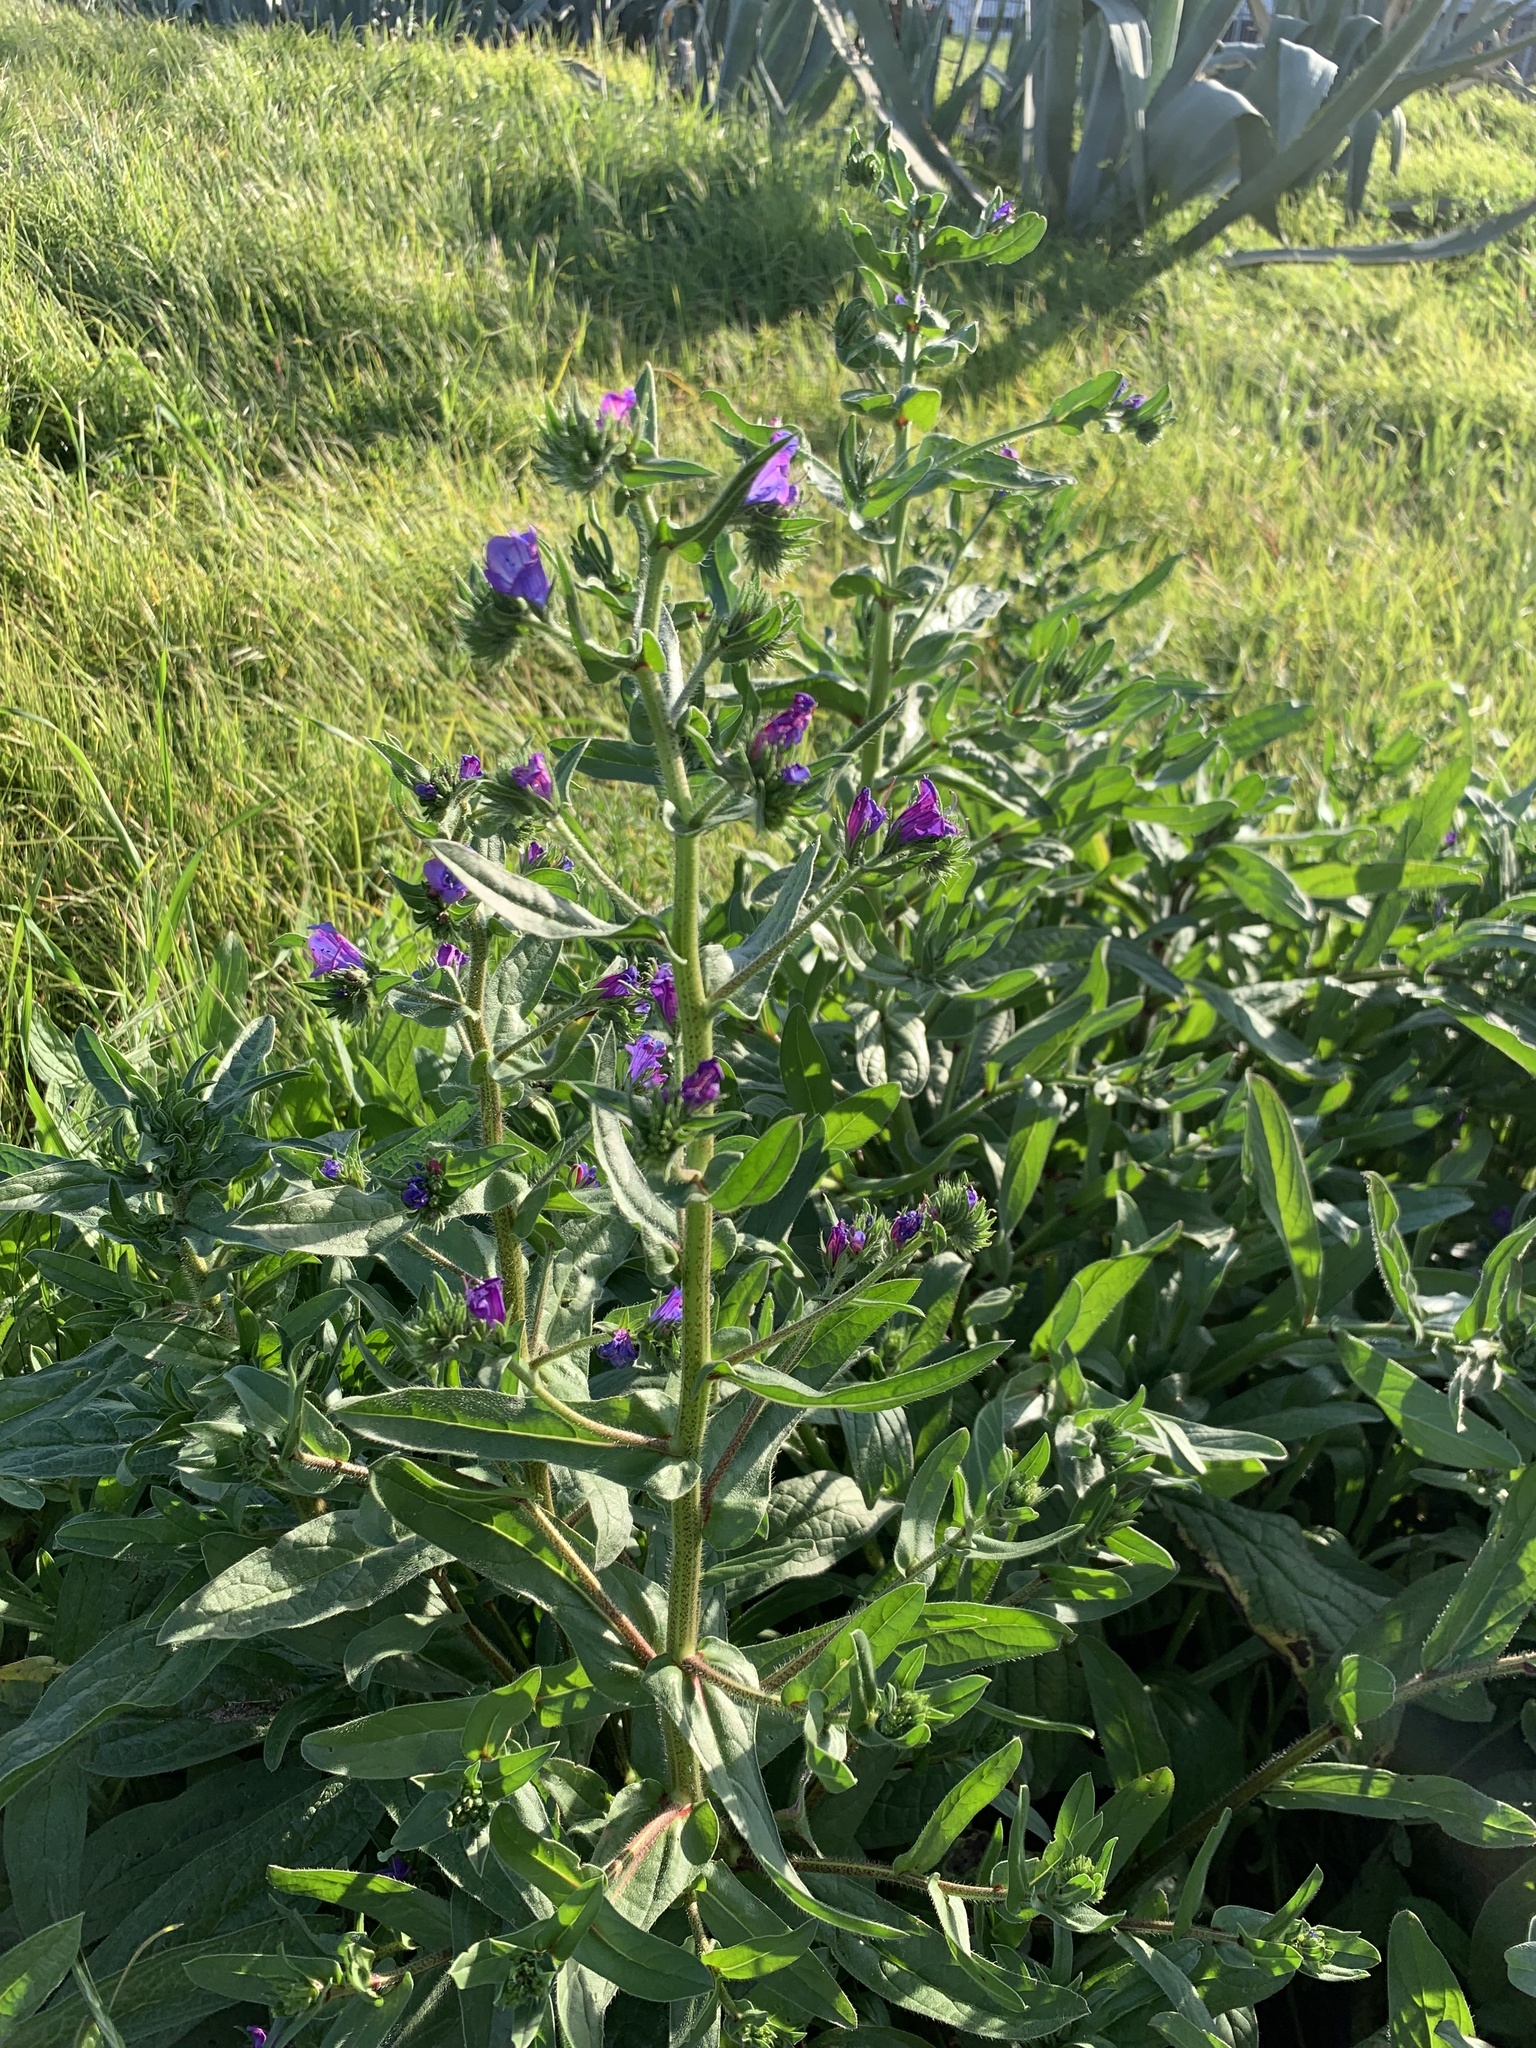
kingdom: Plantae
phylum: Tracheophyta
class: Magnoliopsida
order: Boraginales
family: Boraginaceae
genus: Echium
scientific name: Echium plantagineum
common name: Purple viper's-bugloss
